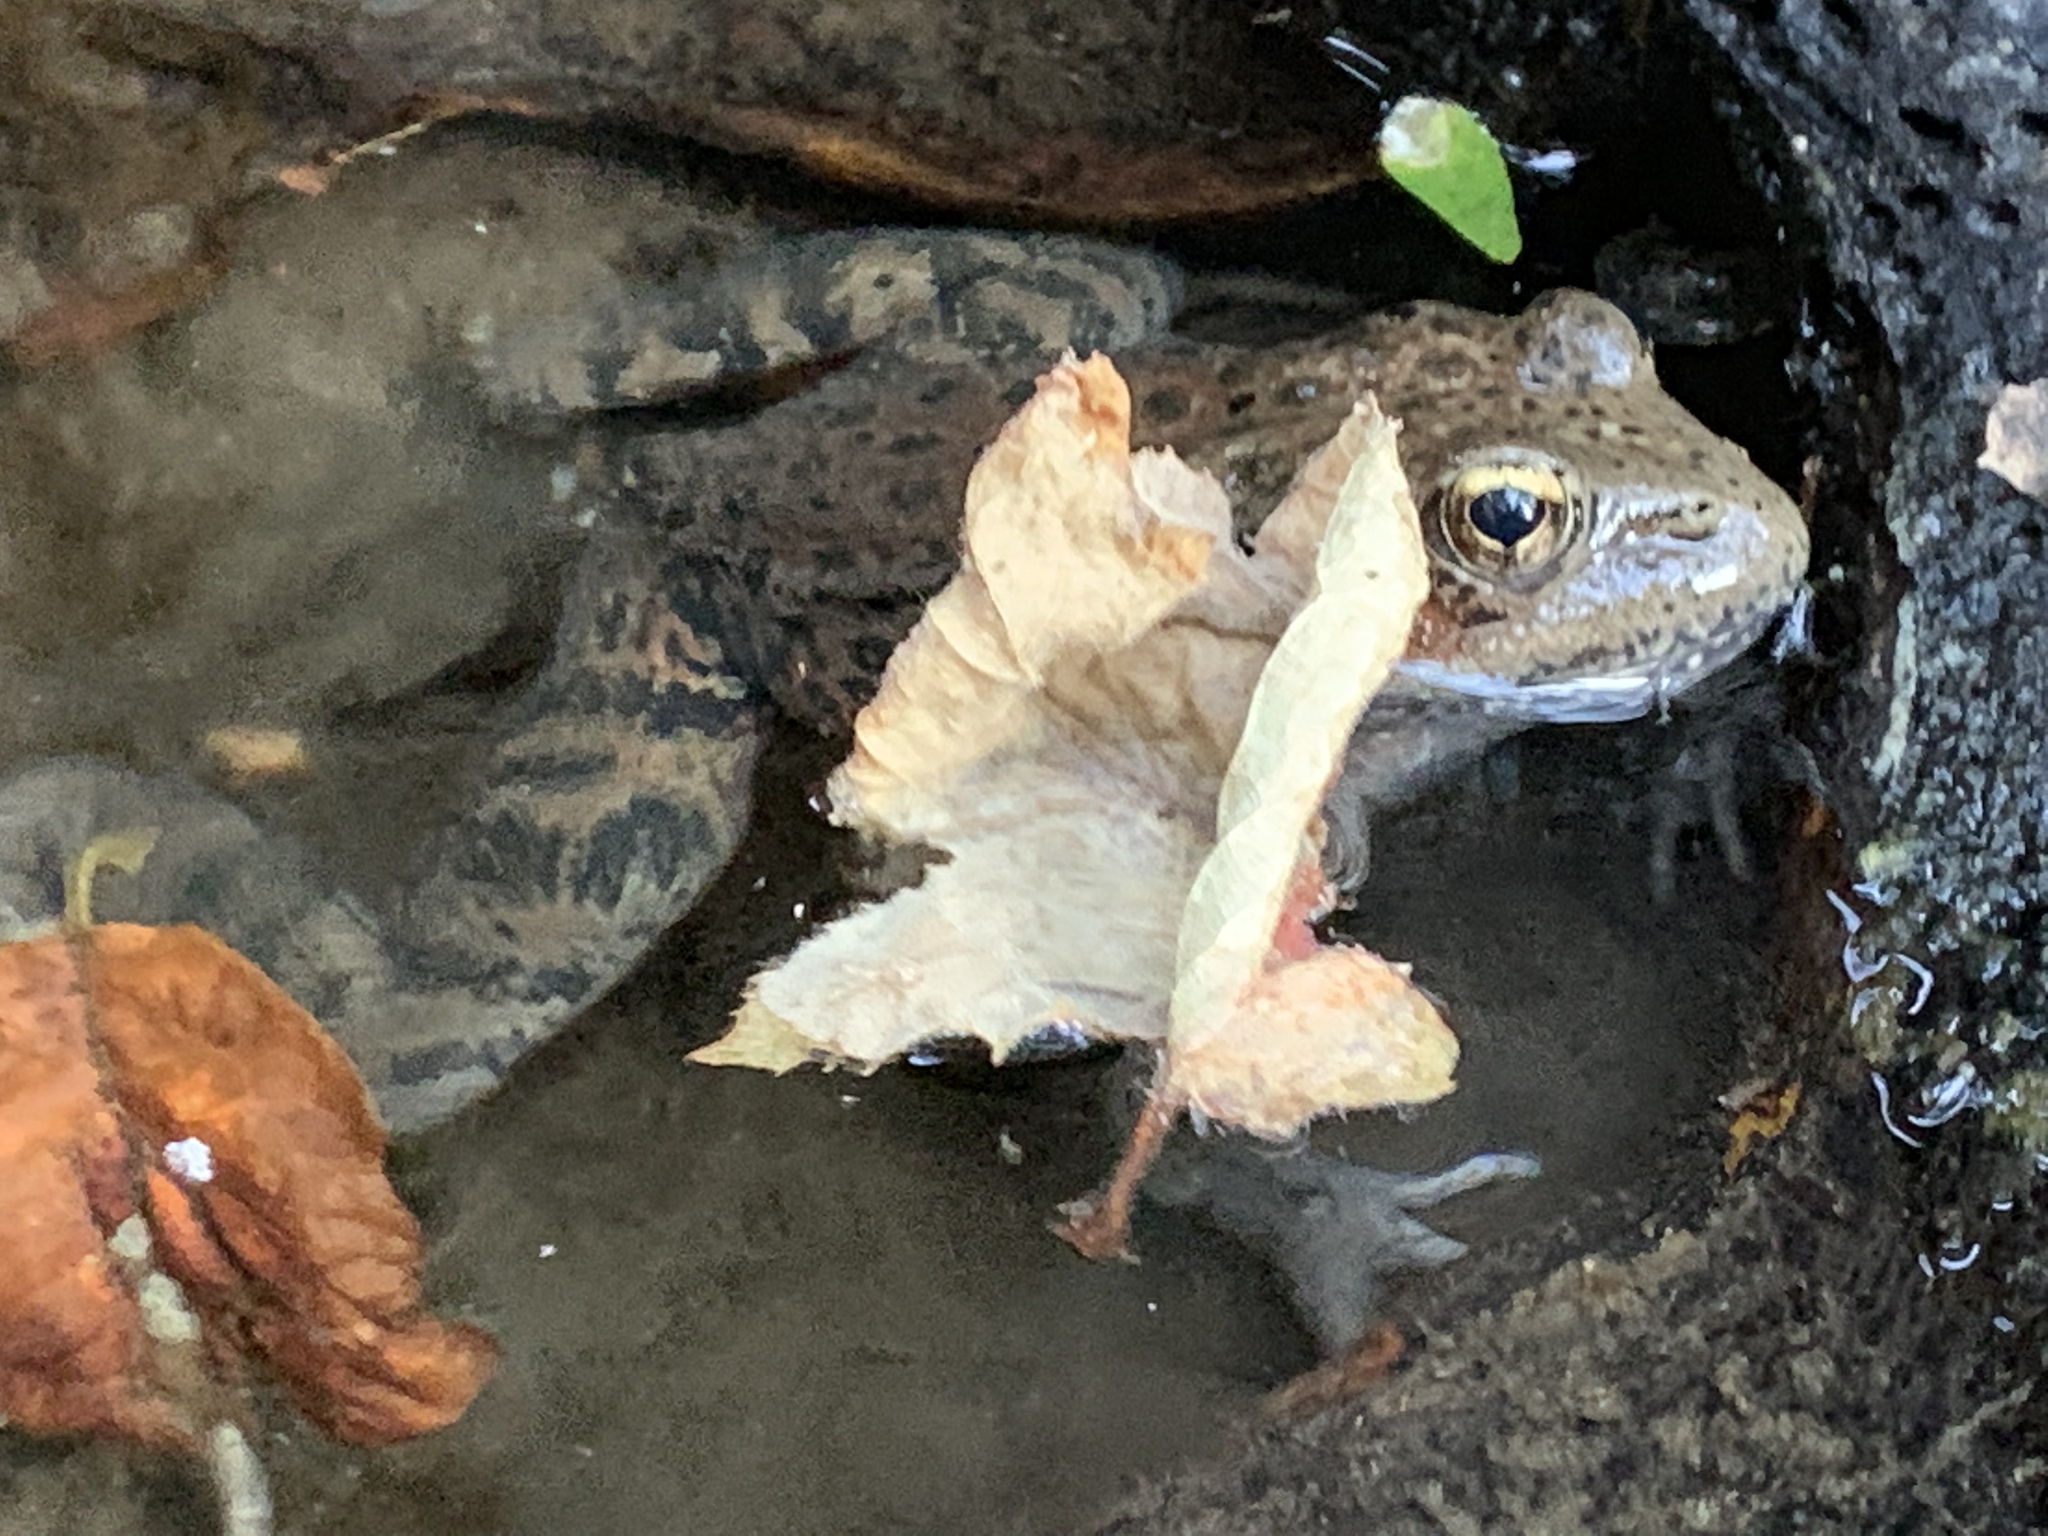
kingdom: Animalia
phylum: Chordata
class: Amphibia
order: Anura
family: Ranidae
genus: Rana
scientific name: Rana draytonii
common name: California red-legged frog
